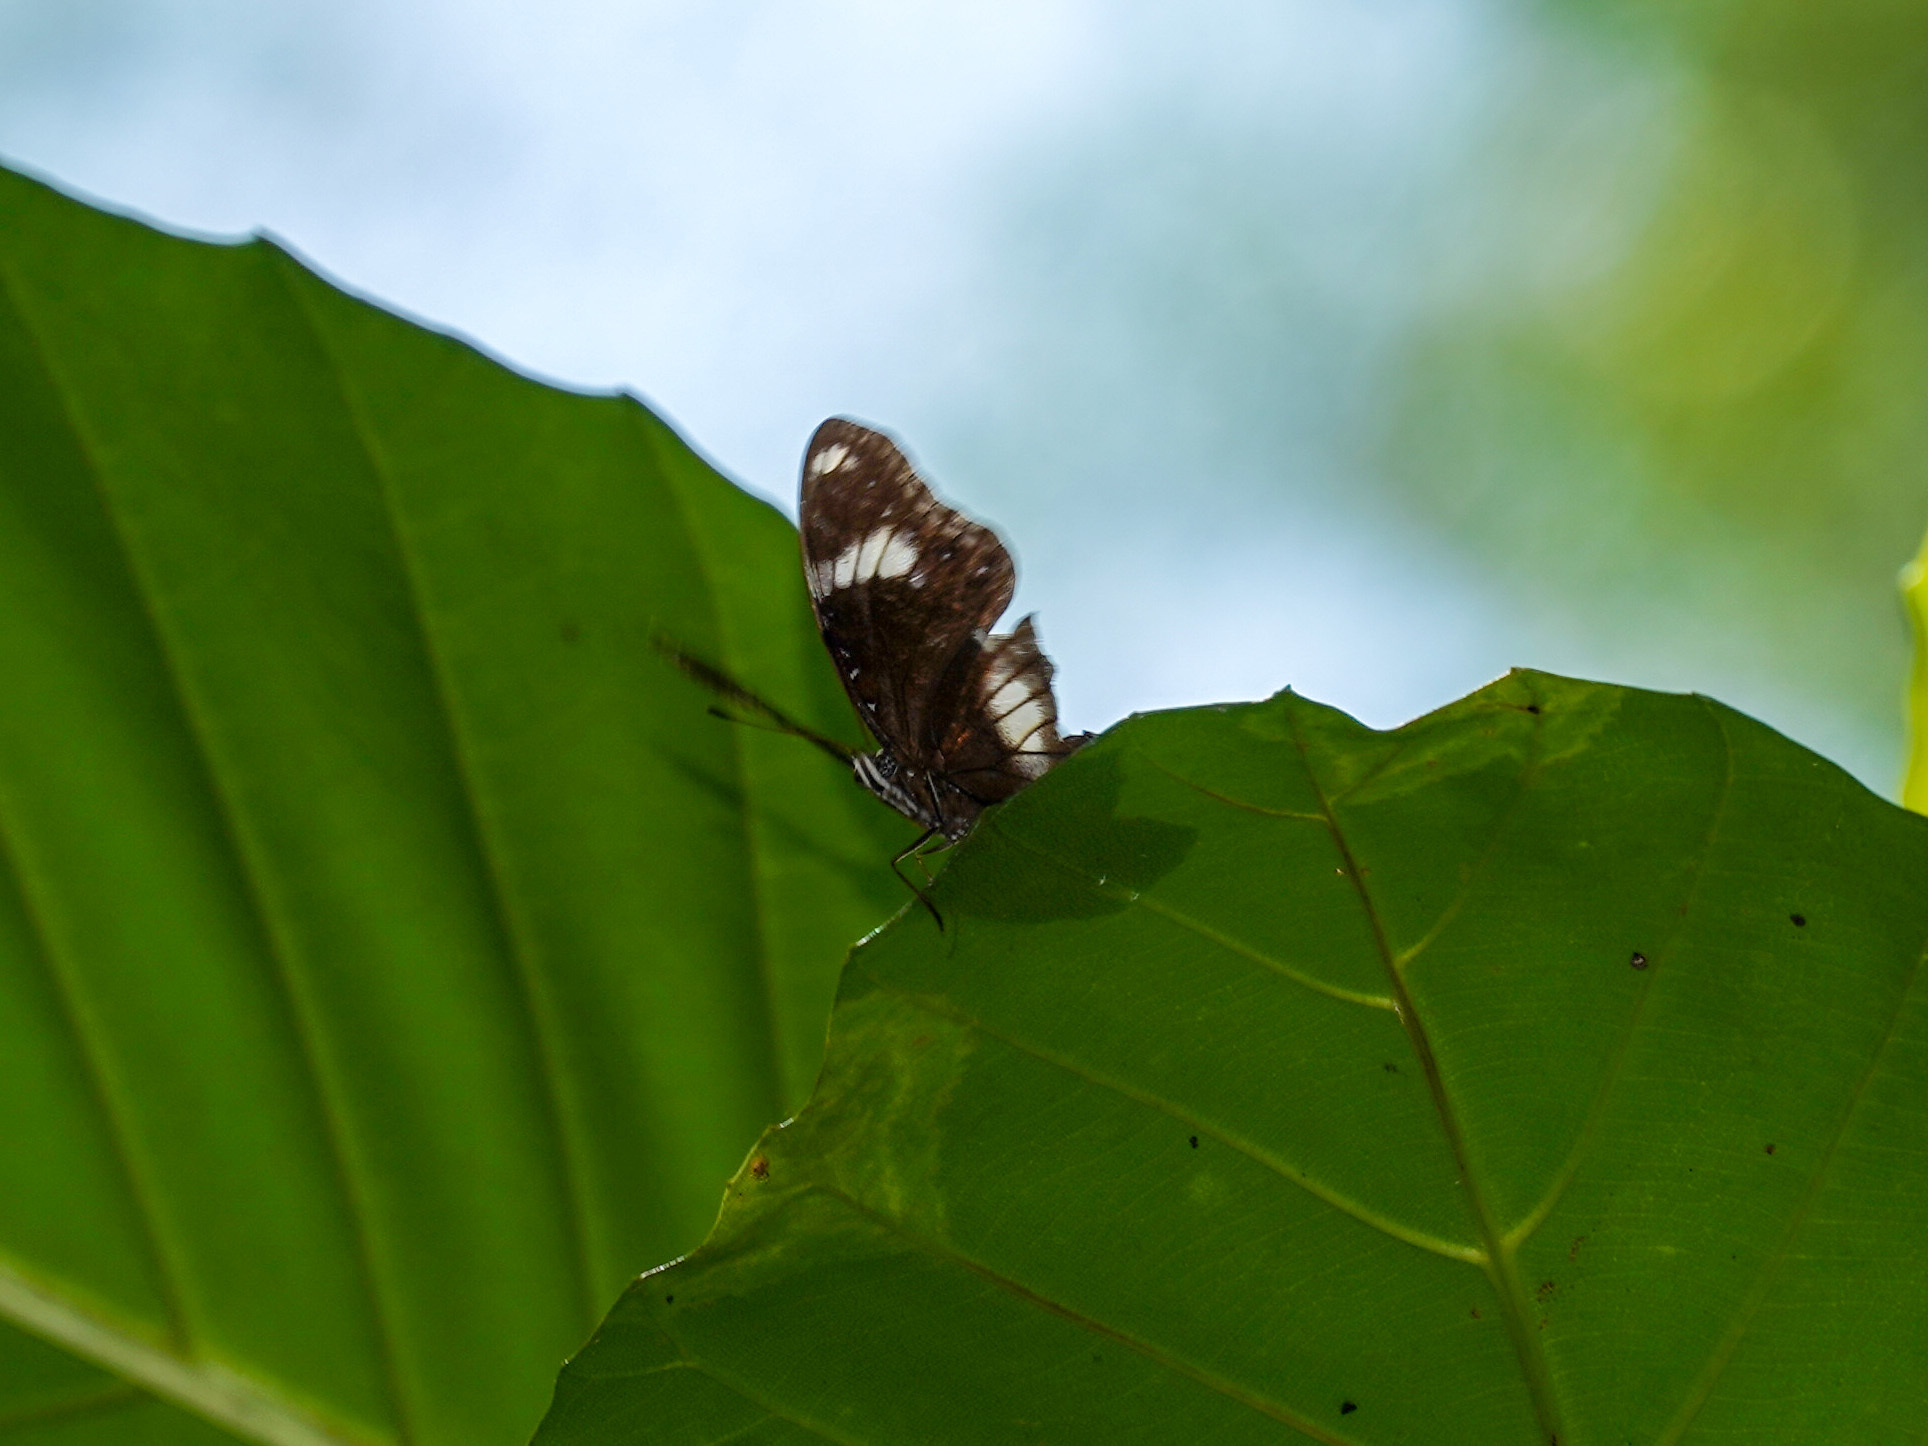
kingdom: Animalia
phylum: Arthropoda
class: Insecta
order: Lepidoptera
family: Nymphalidae
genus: Hypolimnas
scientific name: Hypolimnas bolina
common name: Great eggfly
